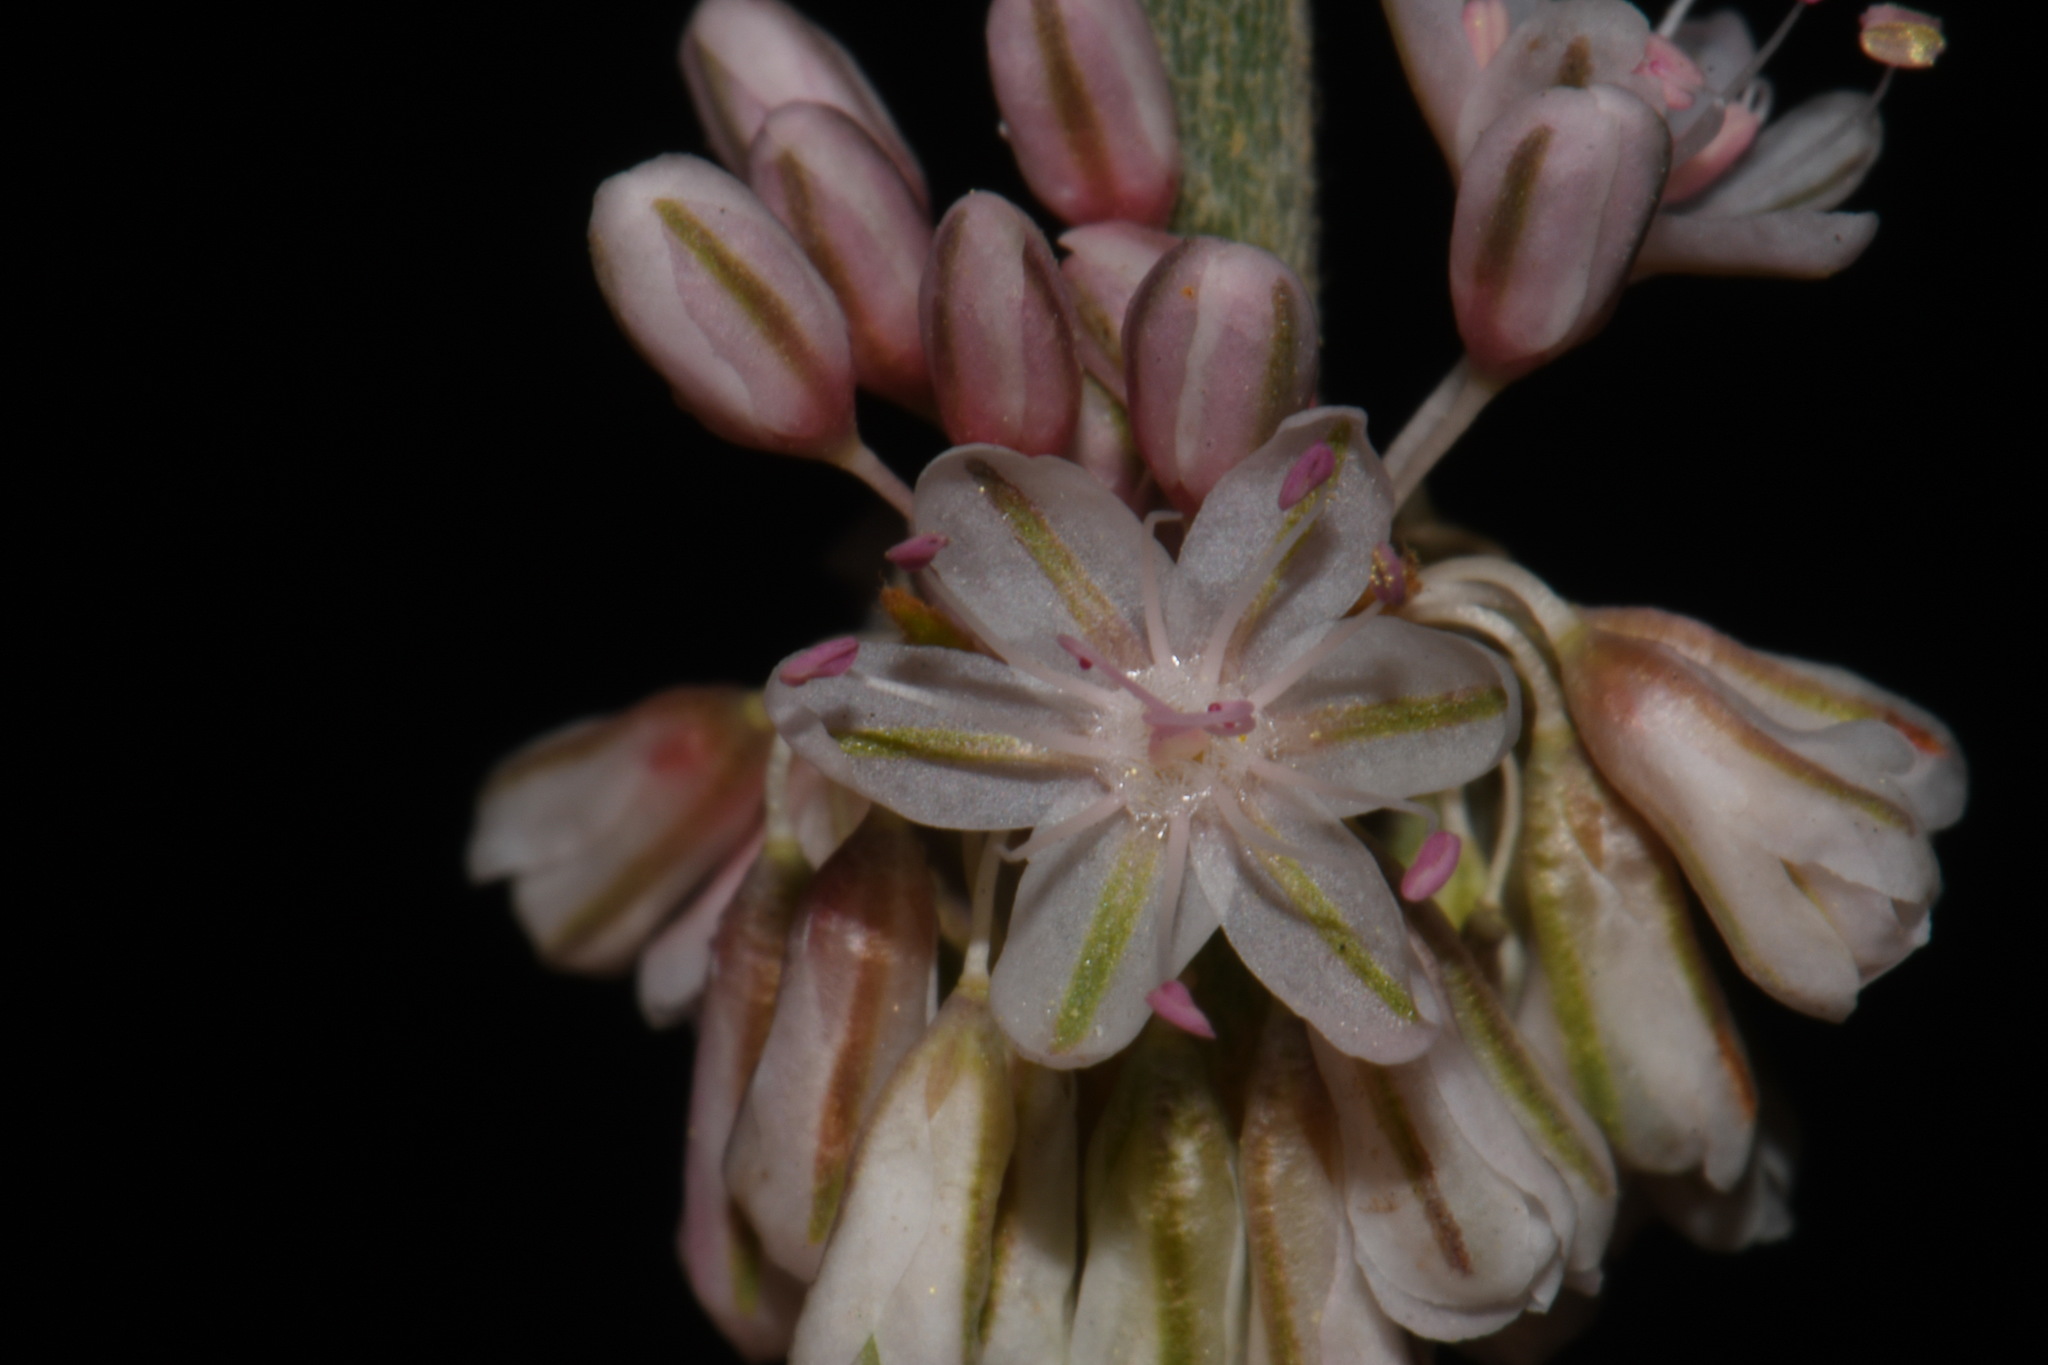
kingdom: Plantae
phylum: Tracheophyta
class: Magnoliopsida
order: Caryophyllales
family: Polygonaceae
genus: Eriogonum
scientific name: Eriogonum racemosum
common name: Redroot wild buckwheat
